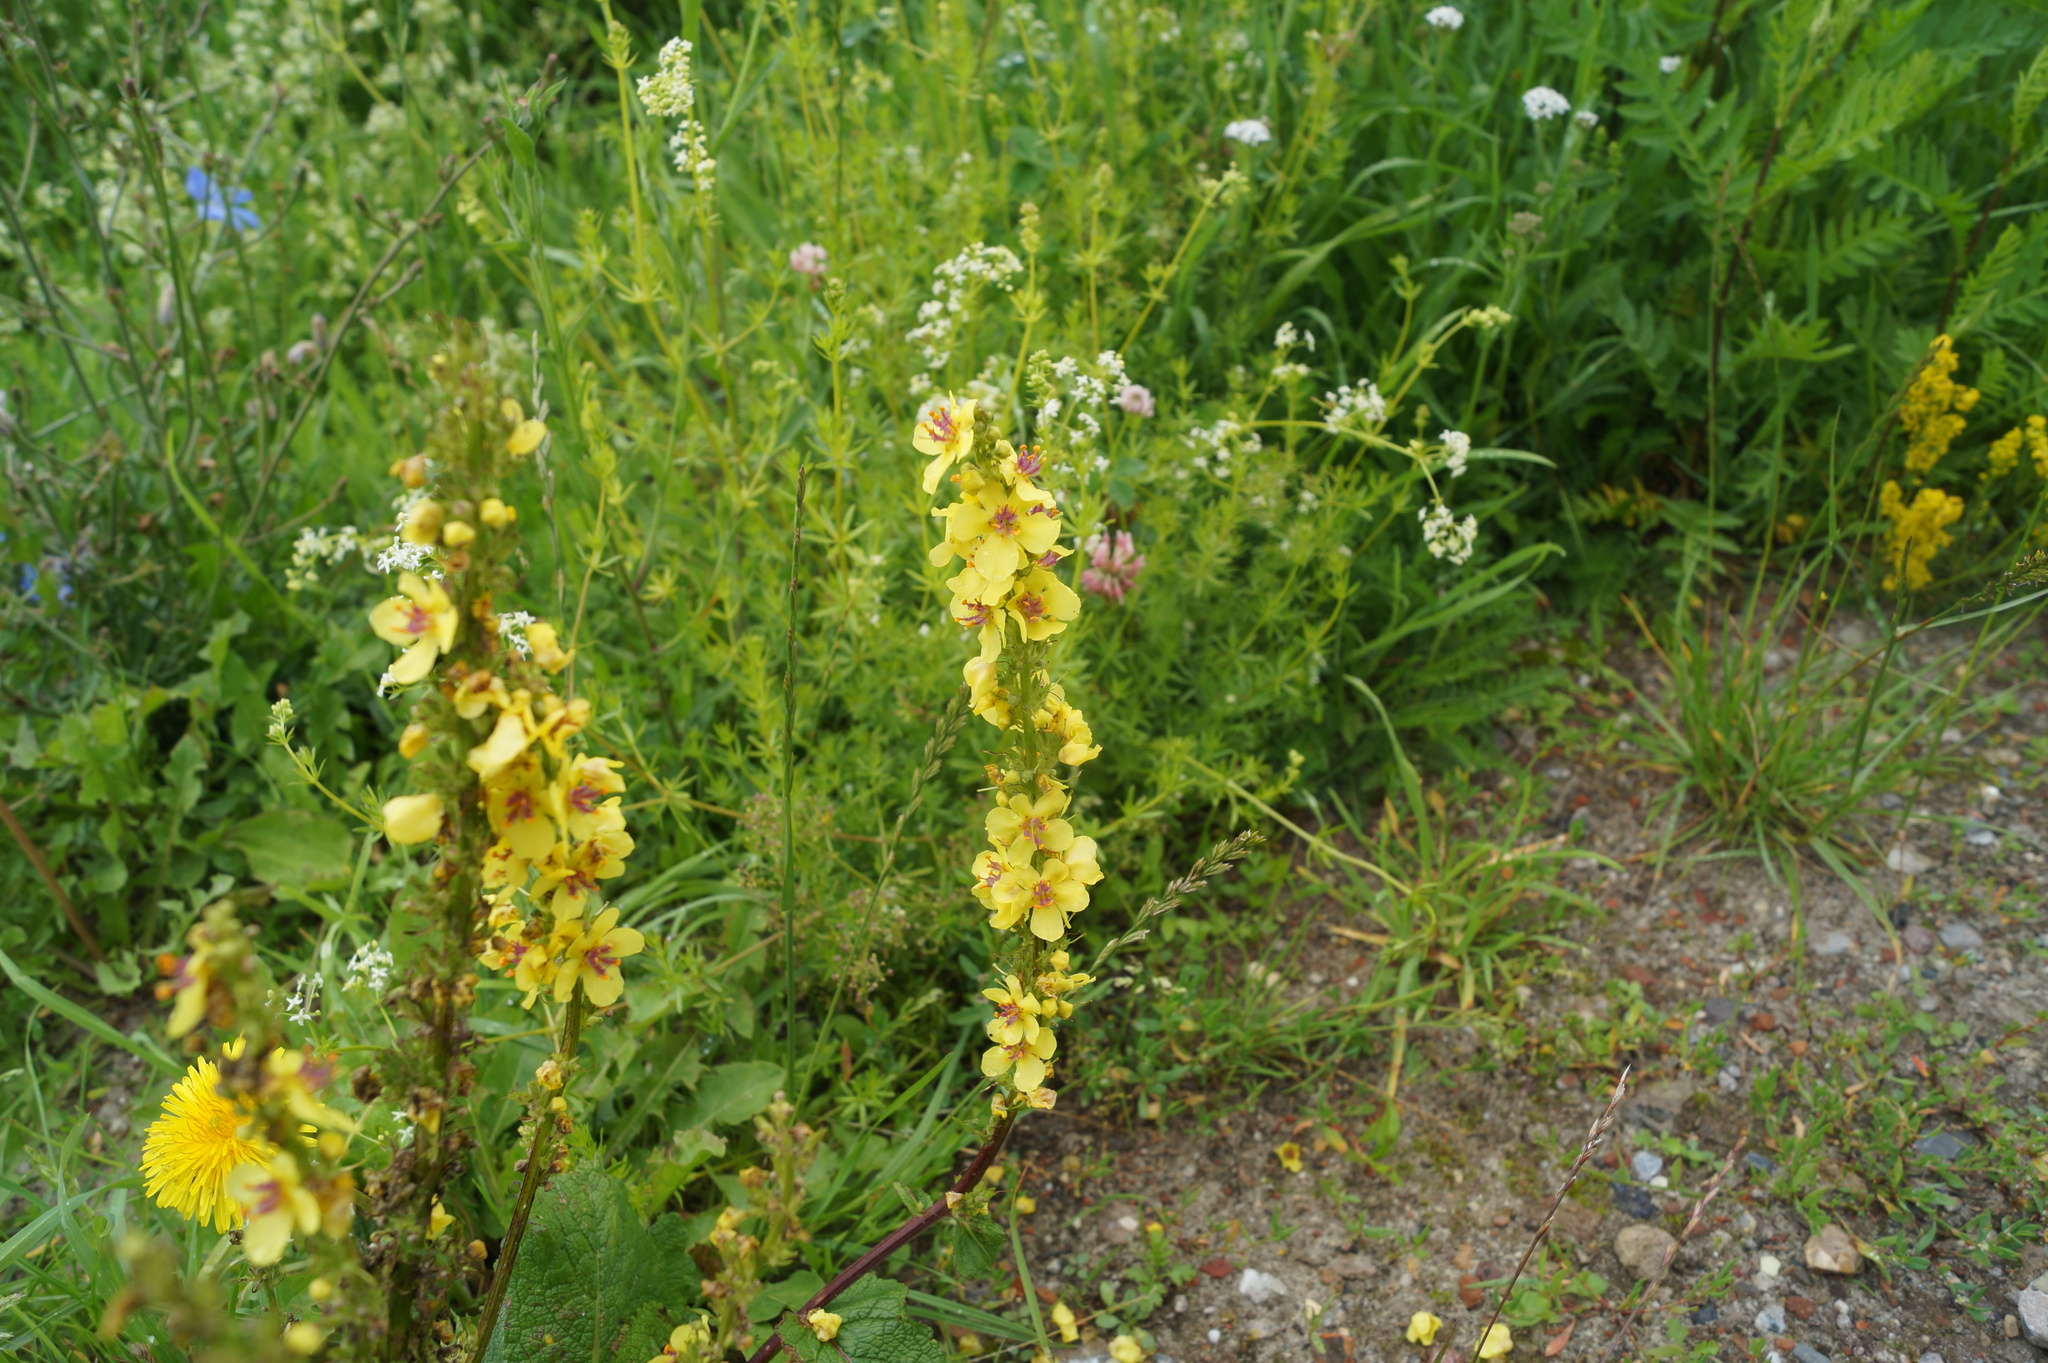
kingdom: Plantae
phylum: Tracheophyta
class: Magnoliopsida
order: Lamiales
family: Scrophulariaceae
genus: Verbascum
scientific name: Verbascum nigrum
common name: Dark mullein
